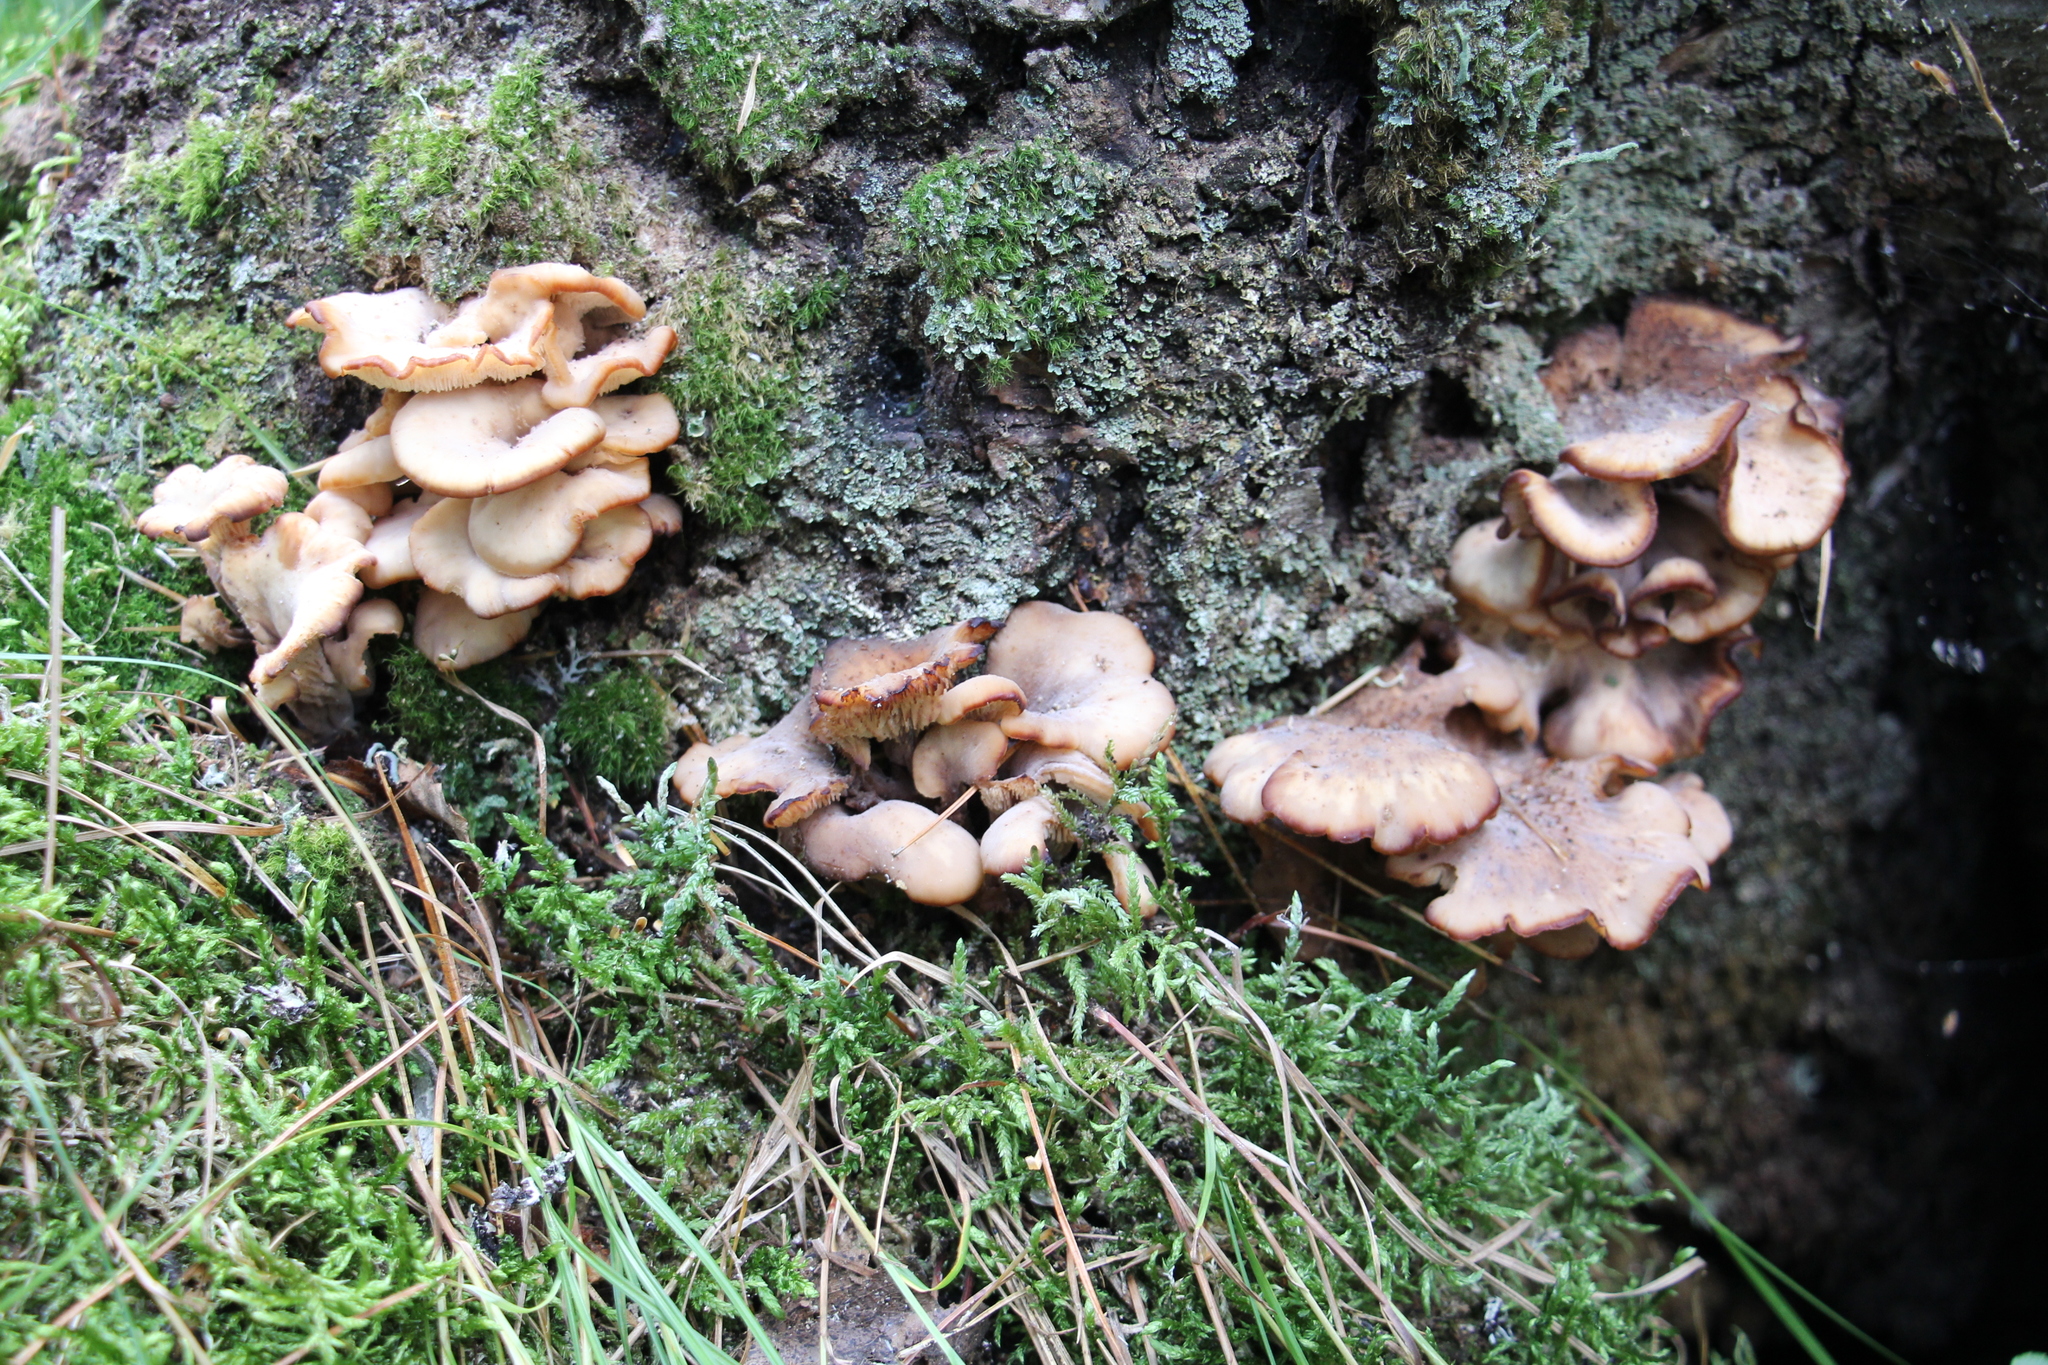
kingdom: Fungi
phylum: Basidiomycota
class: Agaricomycetes
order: Russulales
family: Auriscalpiaceae
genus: Lentinellus
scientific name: Lentinellus cochleatus
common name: Aniseed cockleshell
